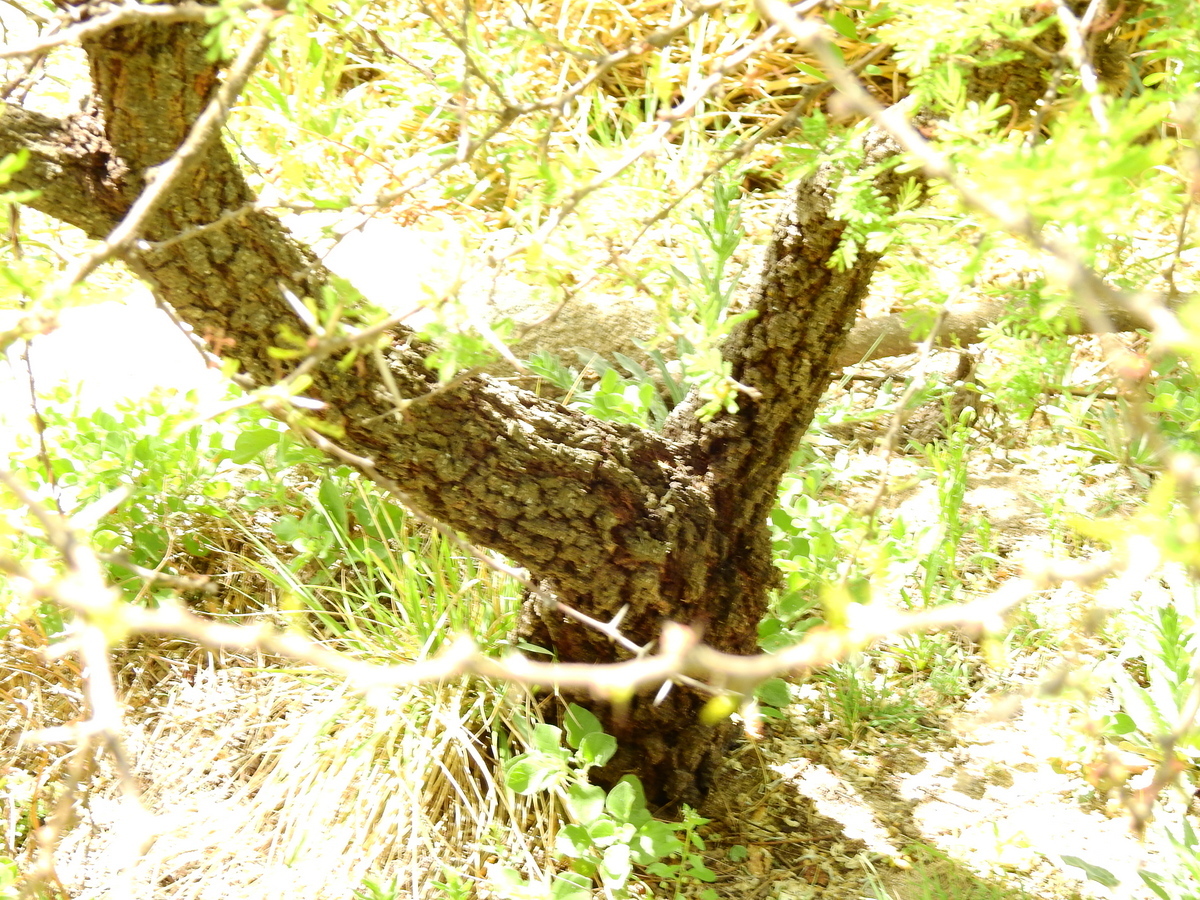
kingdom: Plantae
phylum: Tracheophyta
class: Magnoliopsida
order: Fabales
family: Fabaceae
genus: Vachellia
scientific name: Vachellia caven
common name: Roman cassie
